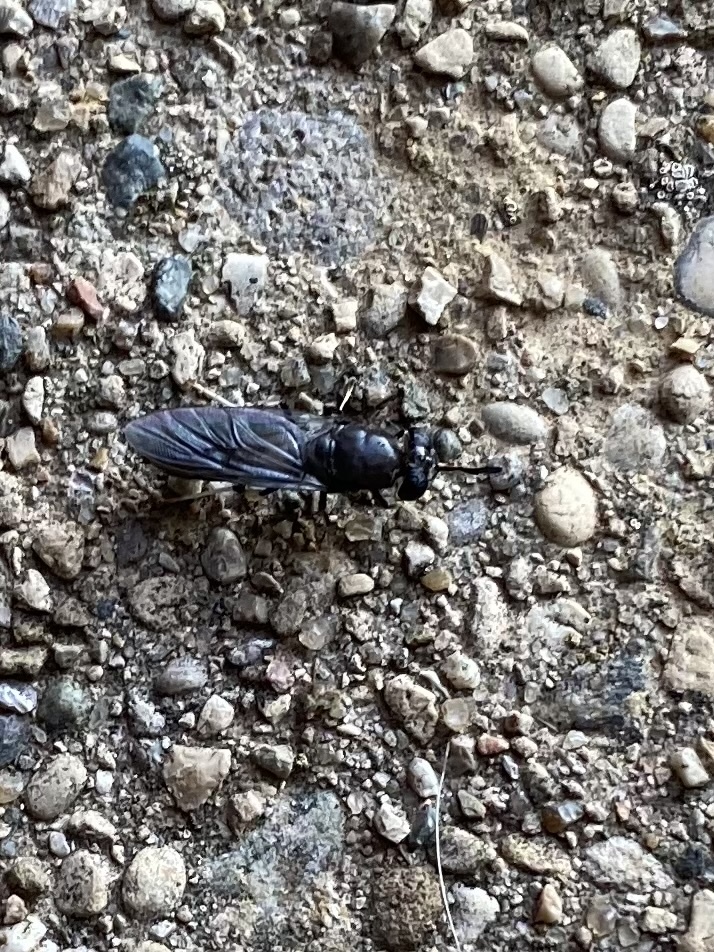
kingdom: Animalia
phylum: Arthropoda
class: Insecta
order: Diptera
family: Stratiomyidae
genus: Hermetia
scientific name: Hermetia illucens
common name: Black soldier fly
